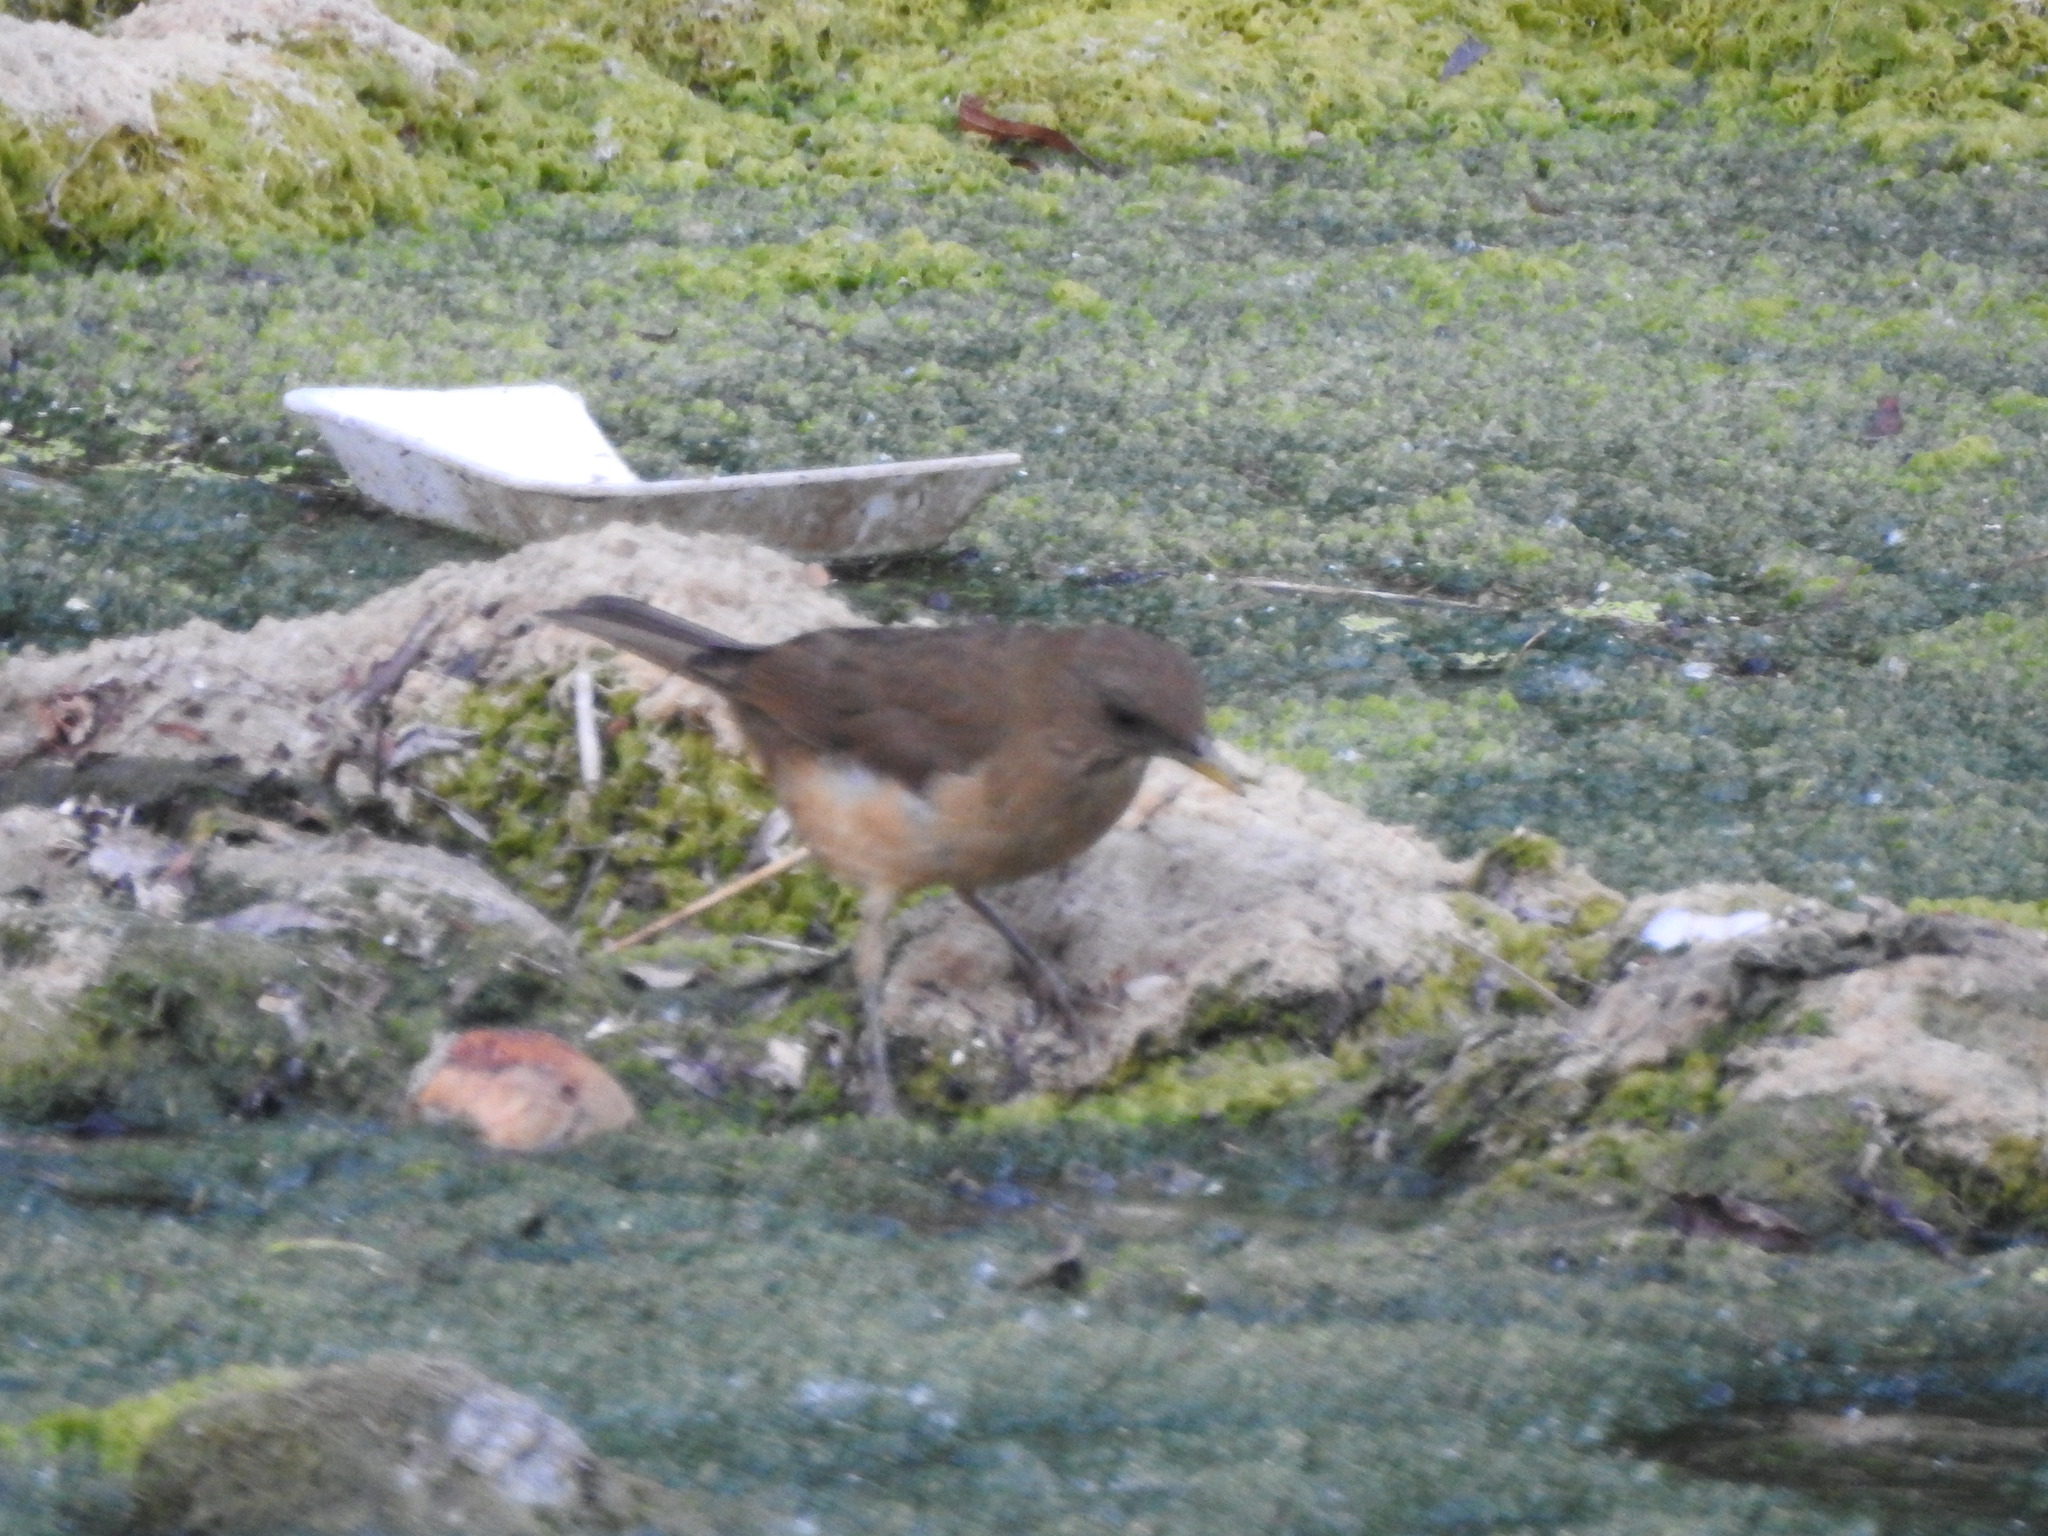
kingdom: Animalia
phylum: Chordata
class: Aves
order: Passeriformes
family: Turdidae
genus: Turdus
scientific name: Turdus grayi
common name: Clay-colored thrush
